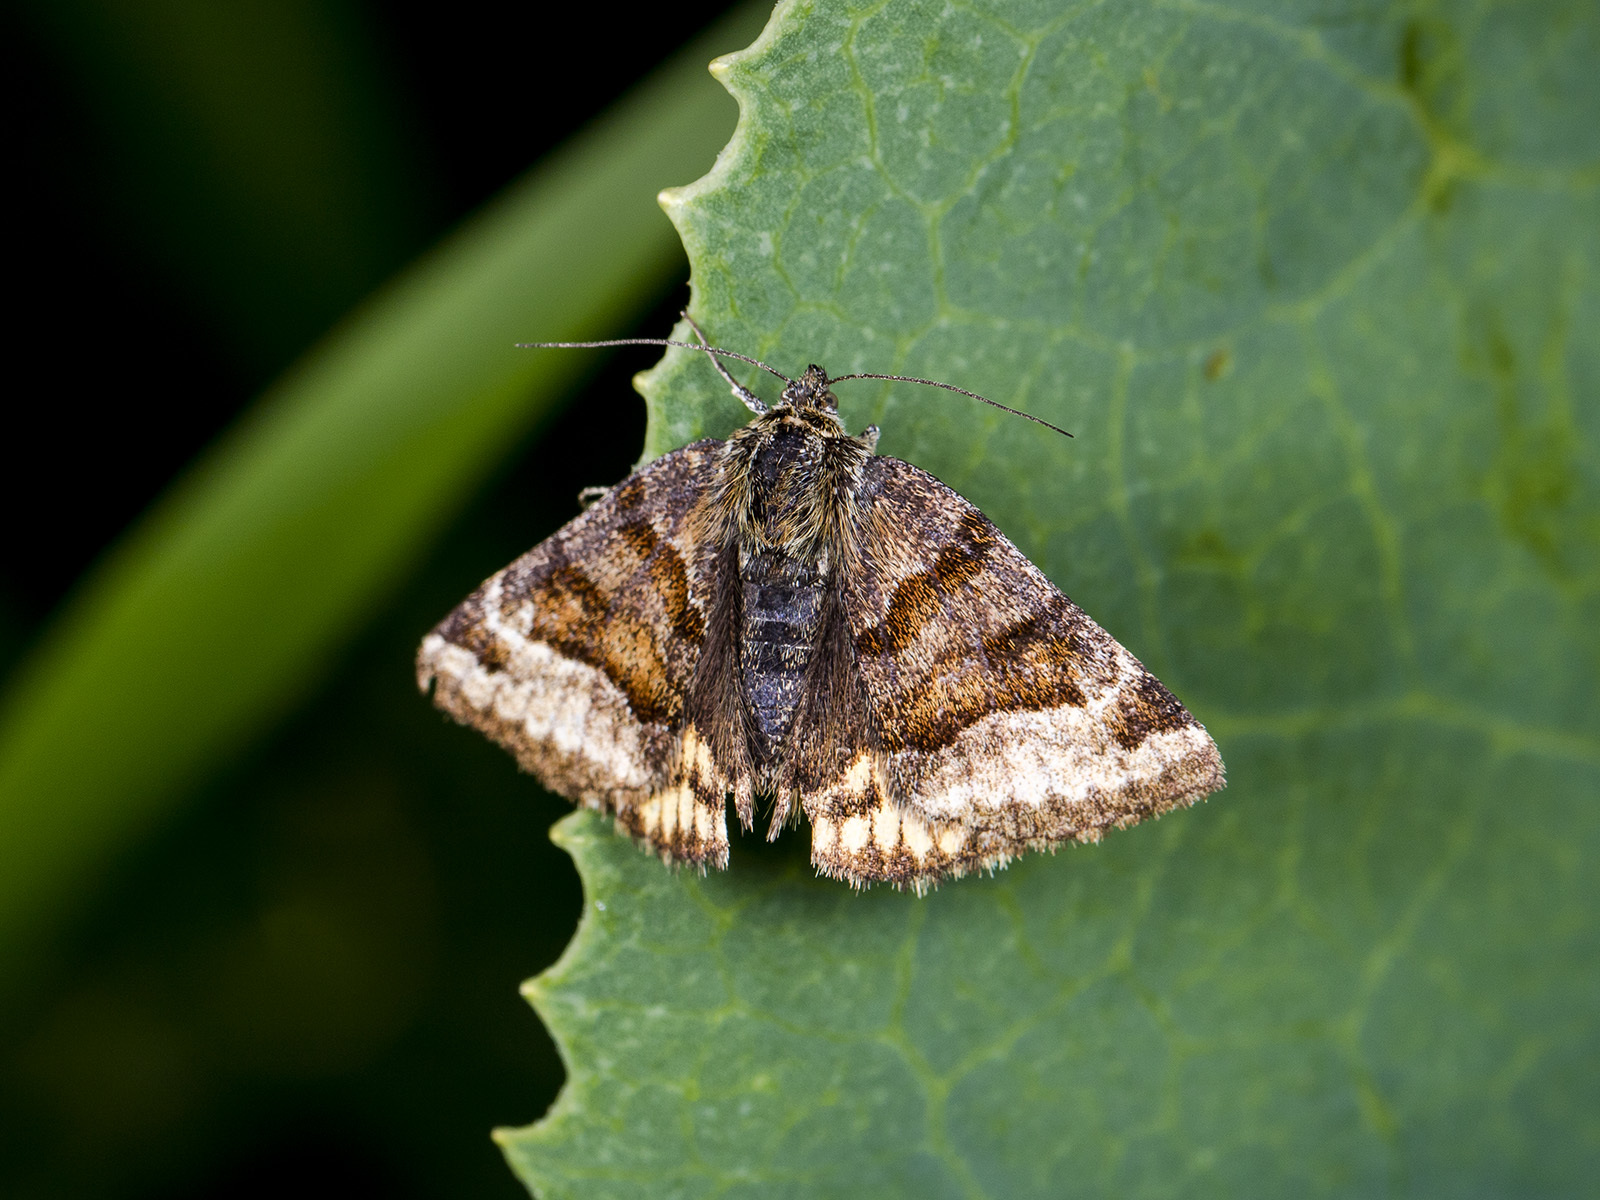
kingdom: Animalia
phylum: Arthropoda
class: Insecta
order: Lepidoptera
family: Erebidae
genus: Euclidia
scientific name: Euclidia glyphica
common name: Burnet companion
